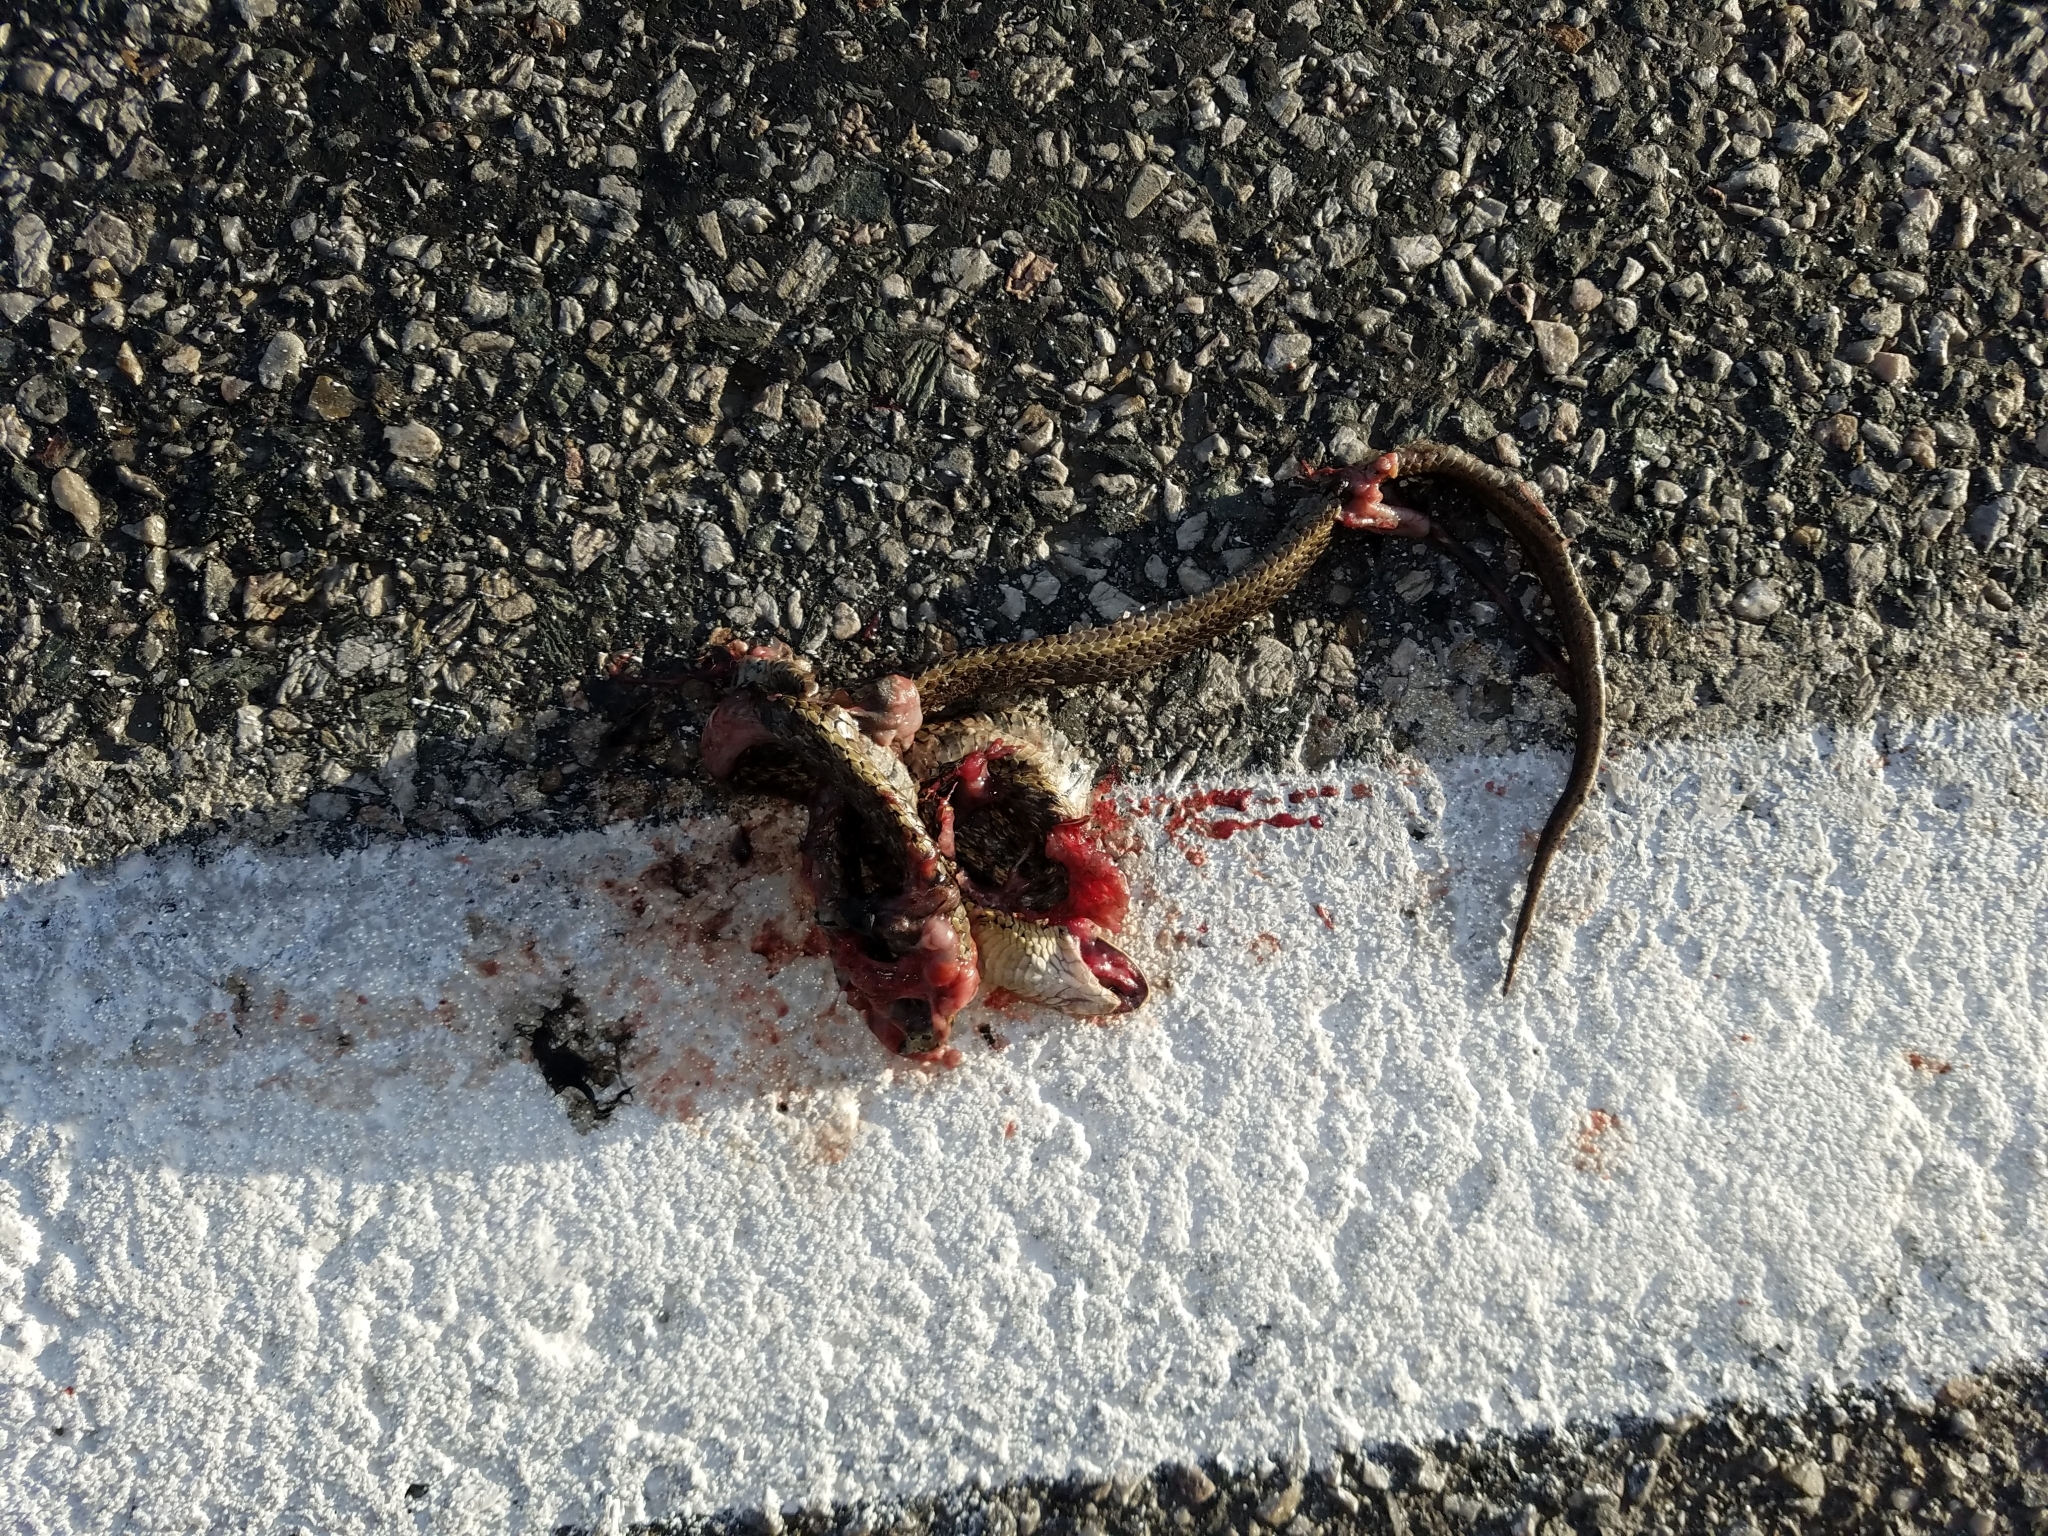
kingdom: Animalia
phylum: Chordata
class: Squamata
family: Colubridae
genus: Thamnophis
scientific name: Thamnophis elegans
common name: Western terrestrial garter snake
